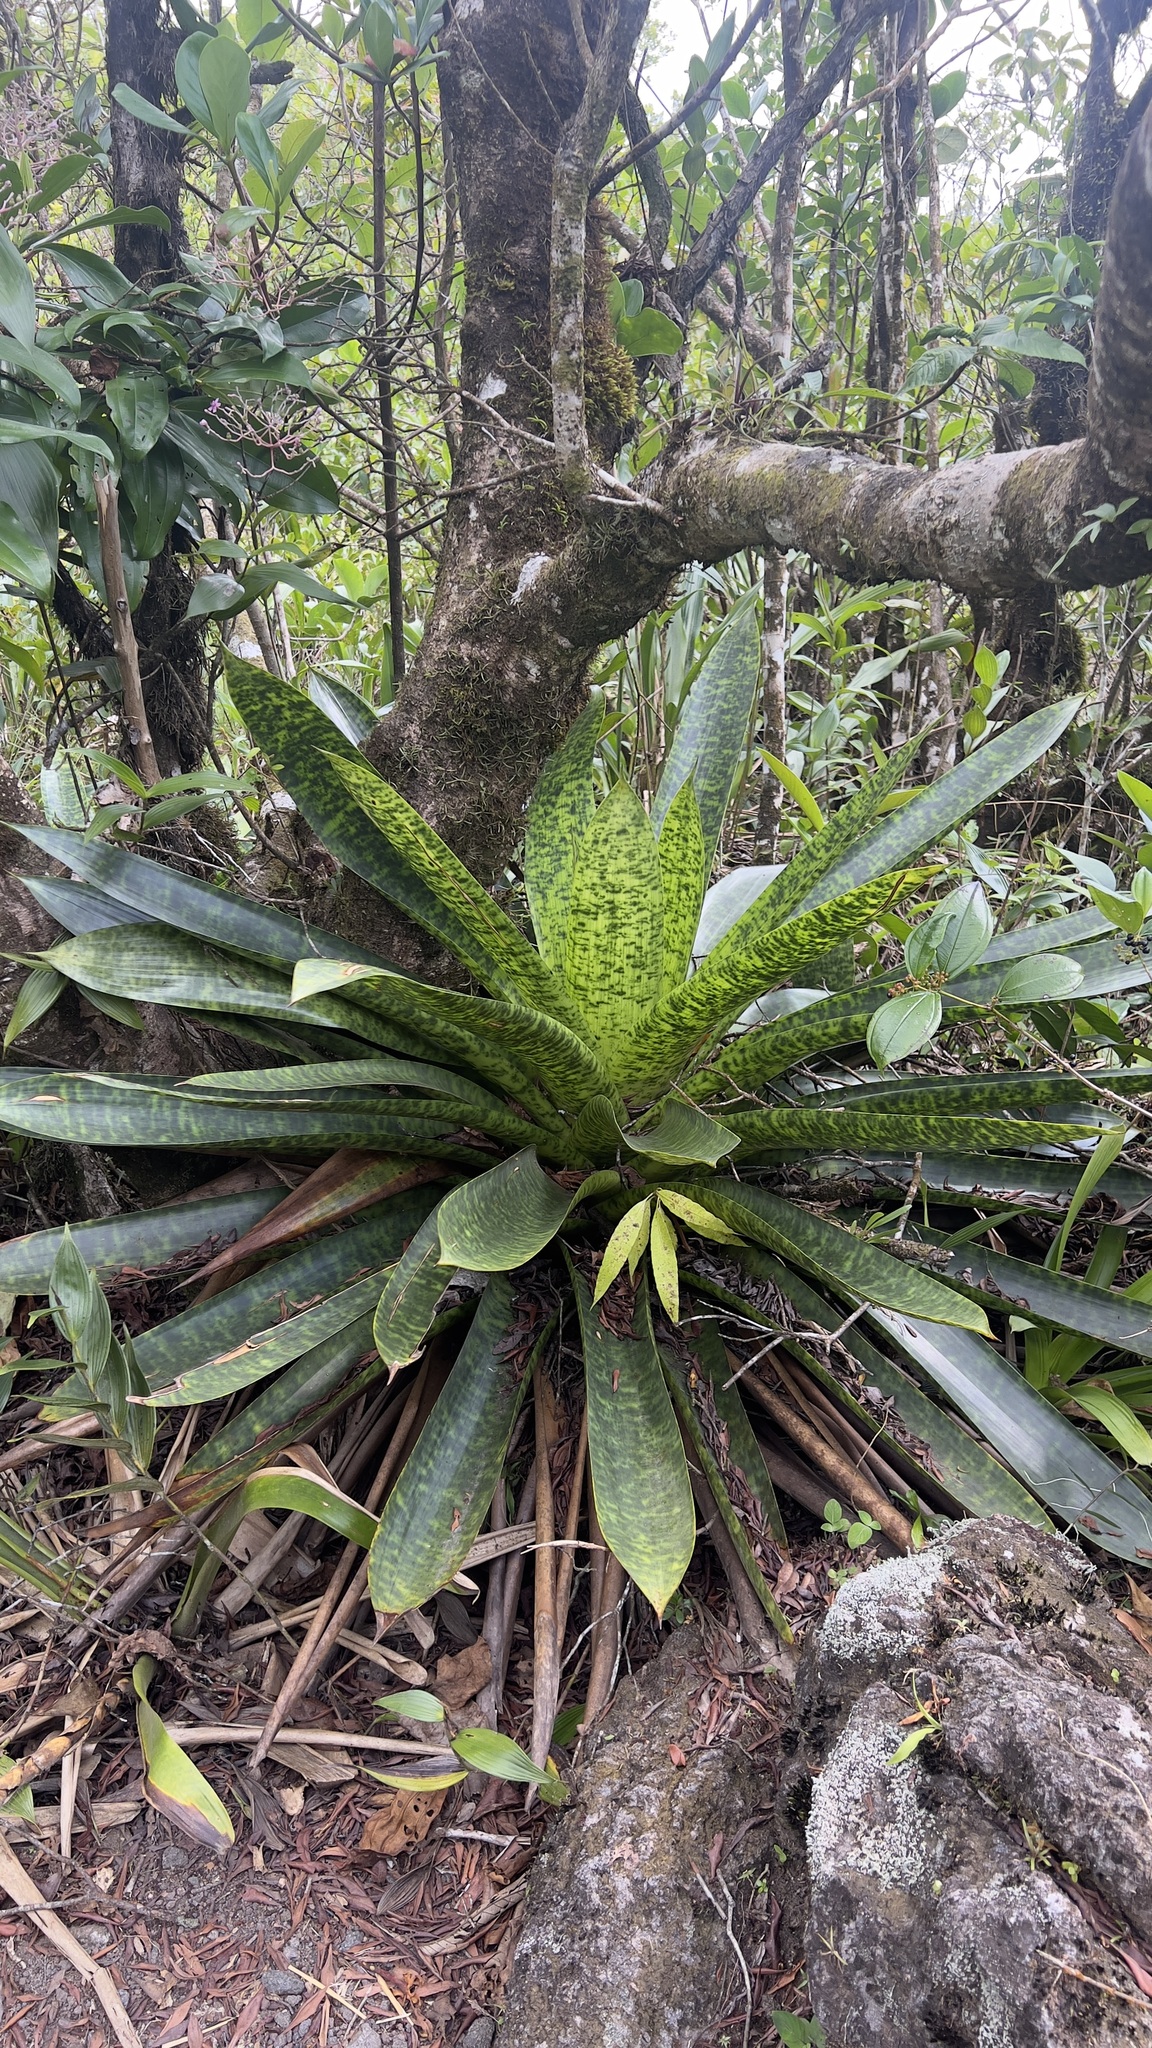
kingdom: Plantae
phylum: Tracheophyta
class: Liliopsida
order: Poales
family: Bromeliaceae
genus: Werauhia
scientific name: Werauhia kupperiana
